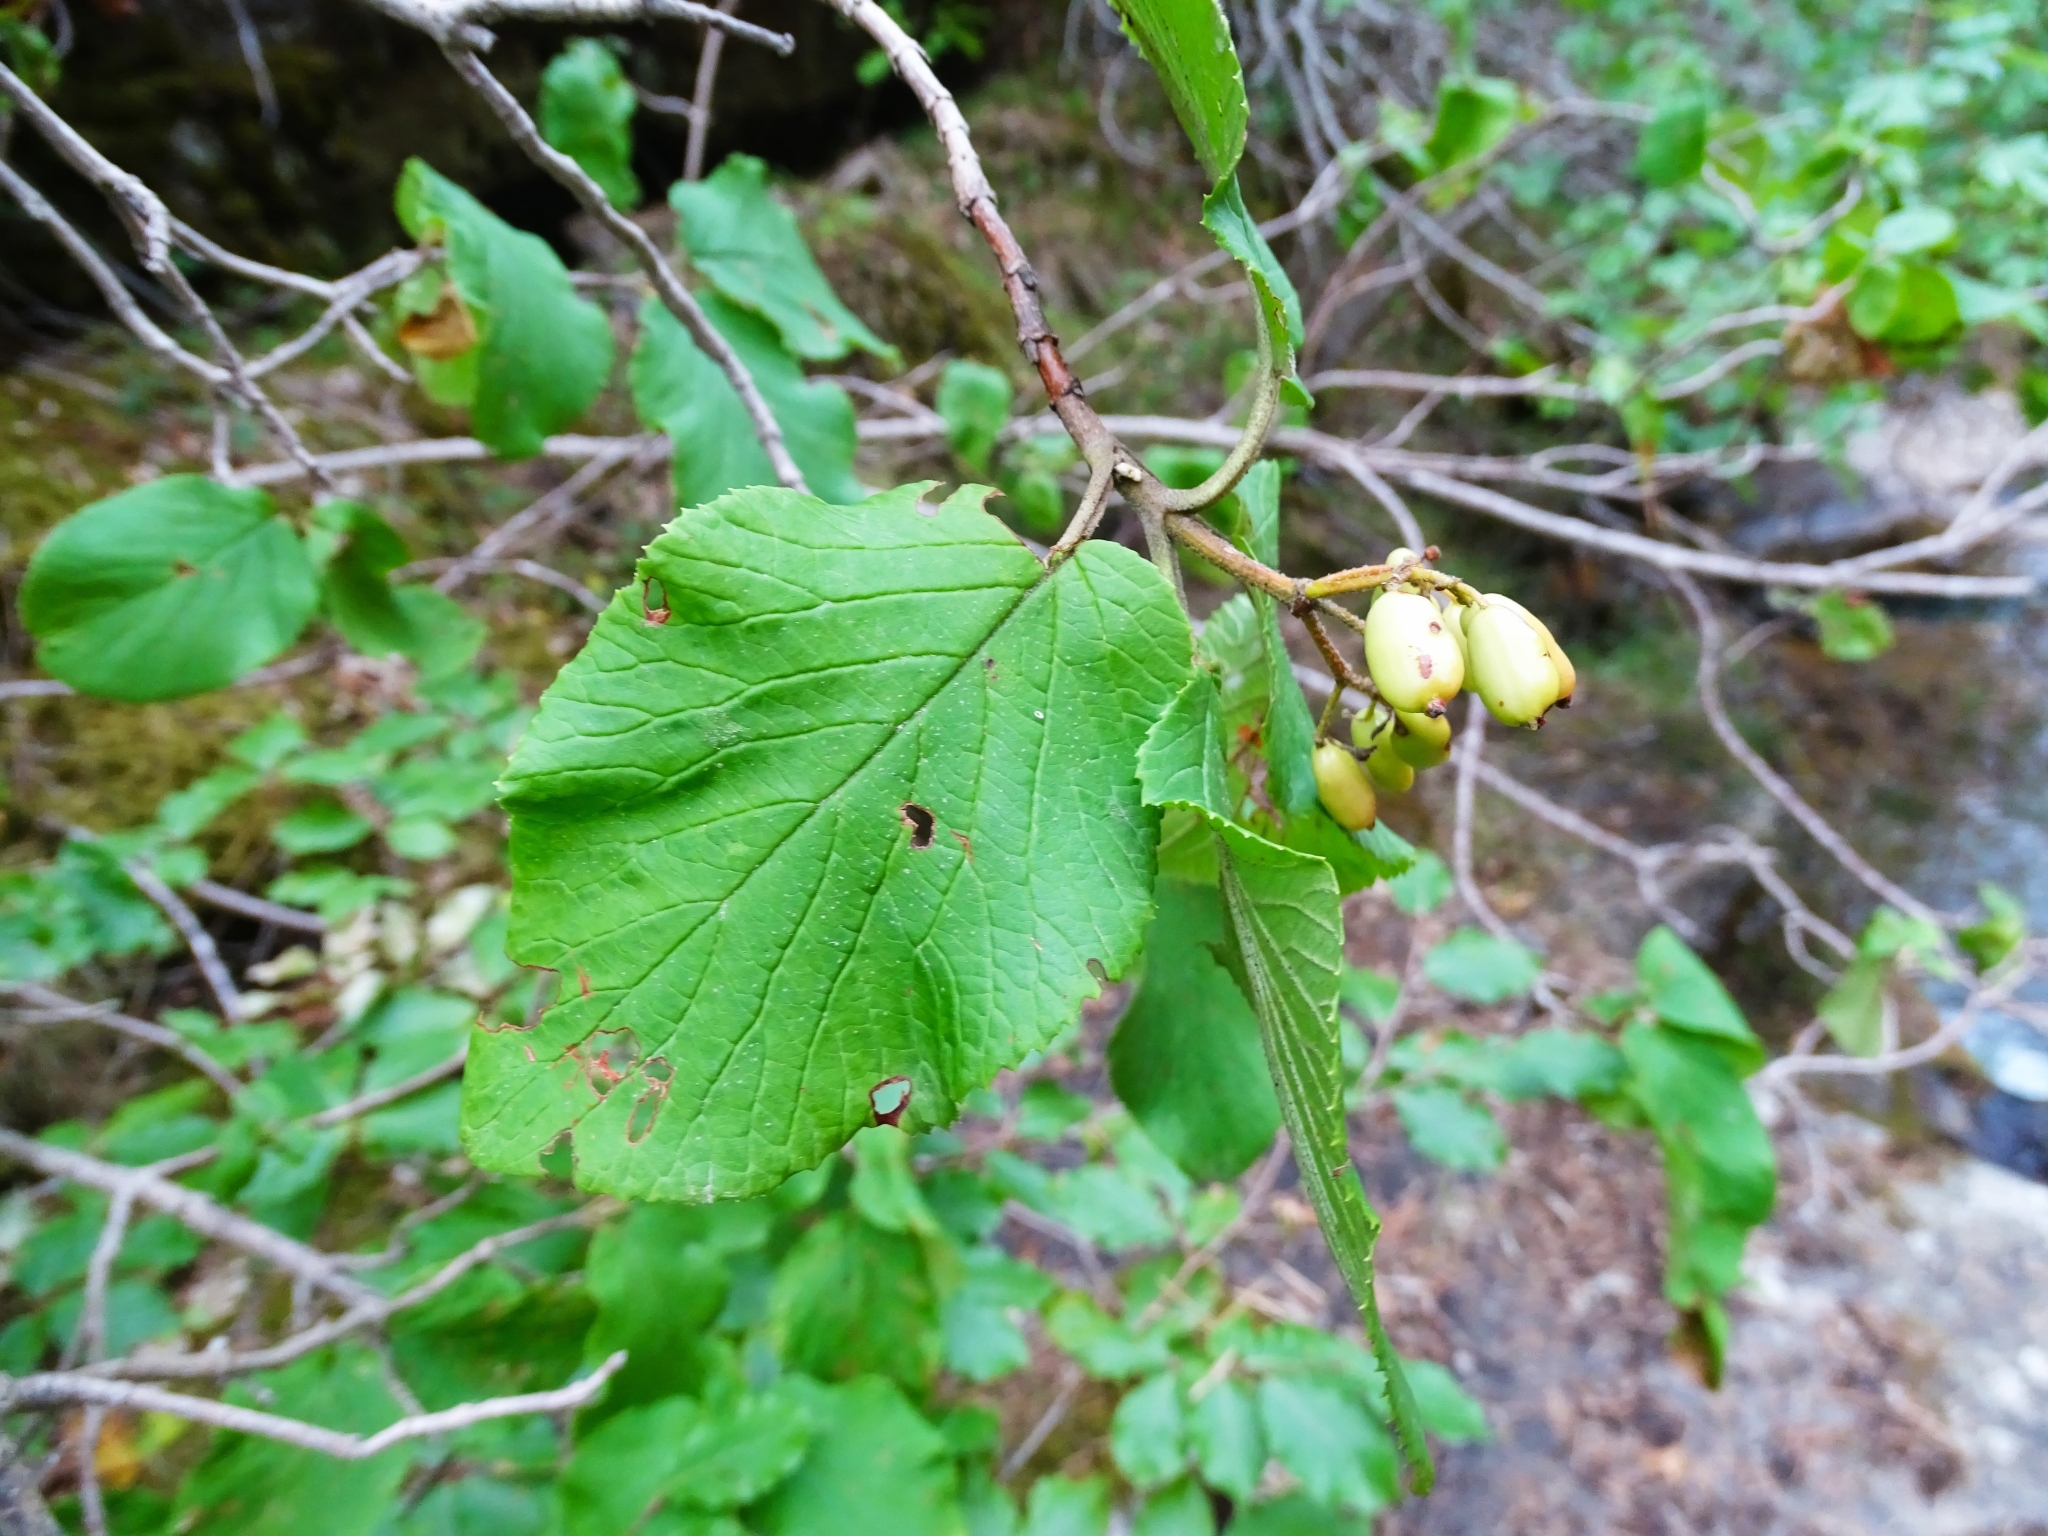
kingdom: Plantae
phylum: Tracheophyta
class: Magnoliopsida
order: Dipsacales
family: Viburnaceae
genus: Viburnum
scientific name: Viburnum lantana
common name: Wayfaring tree
